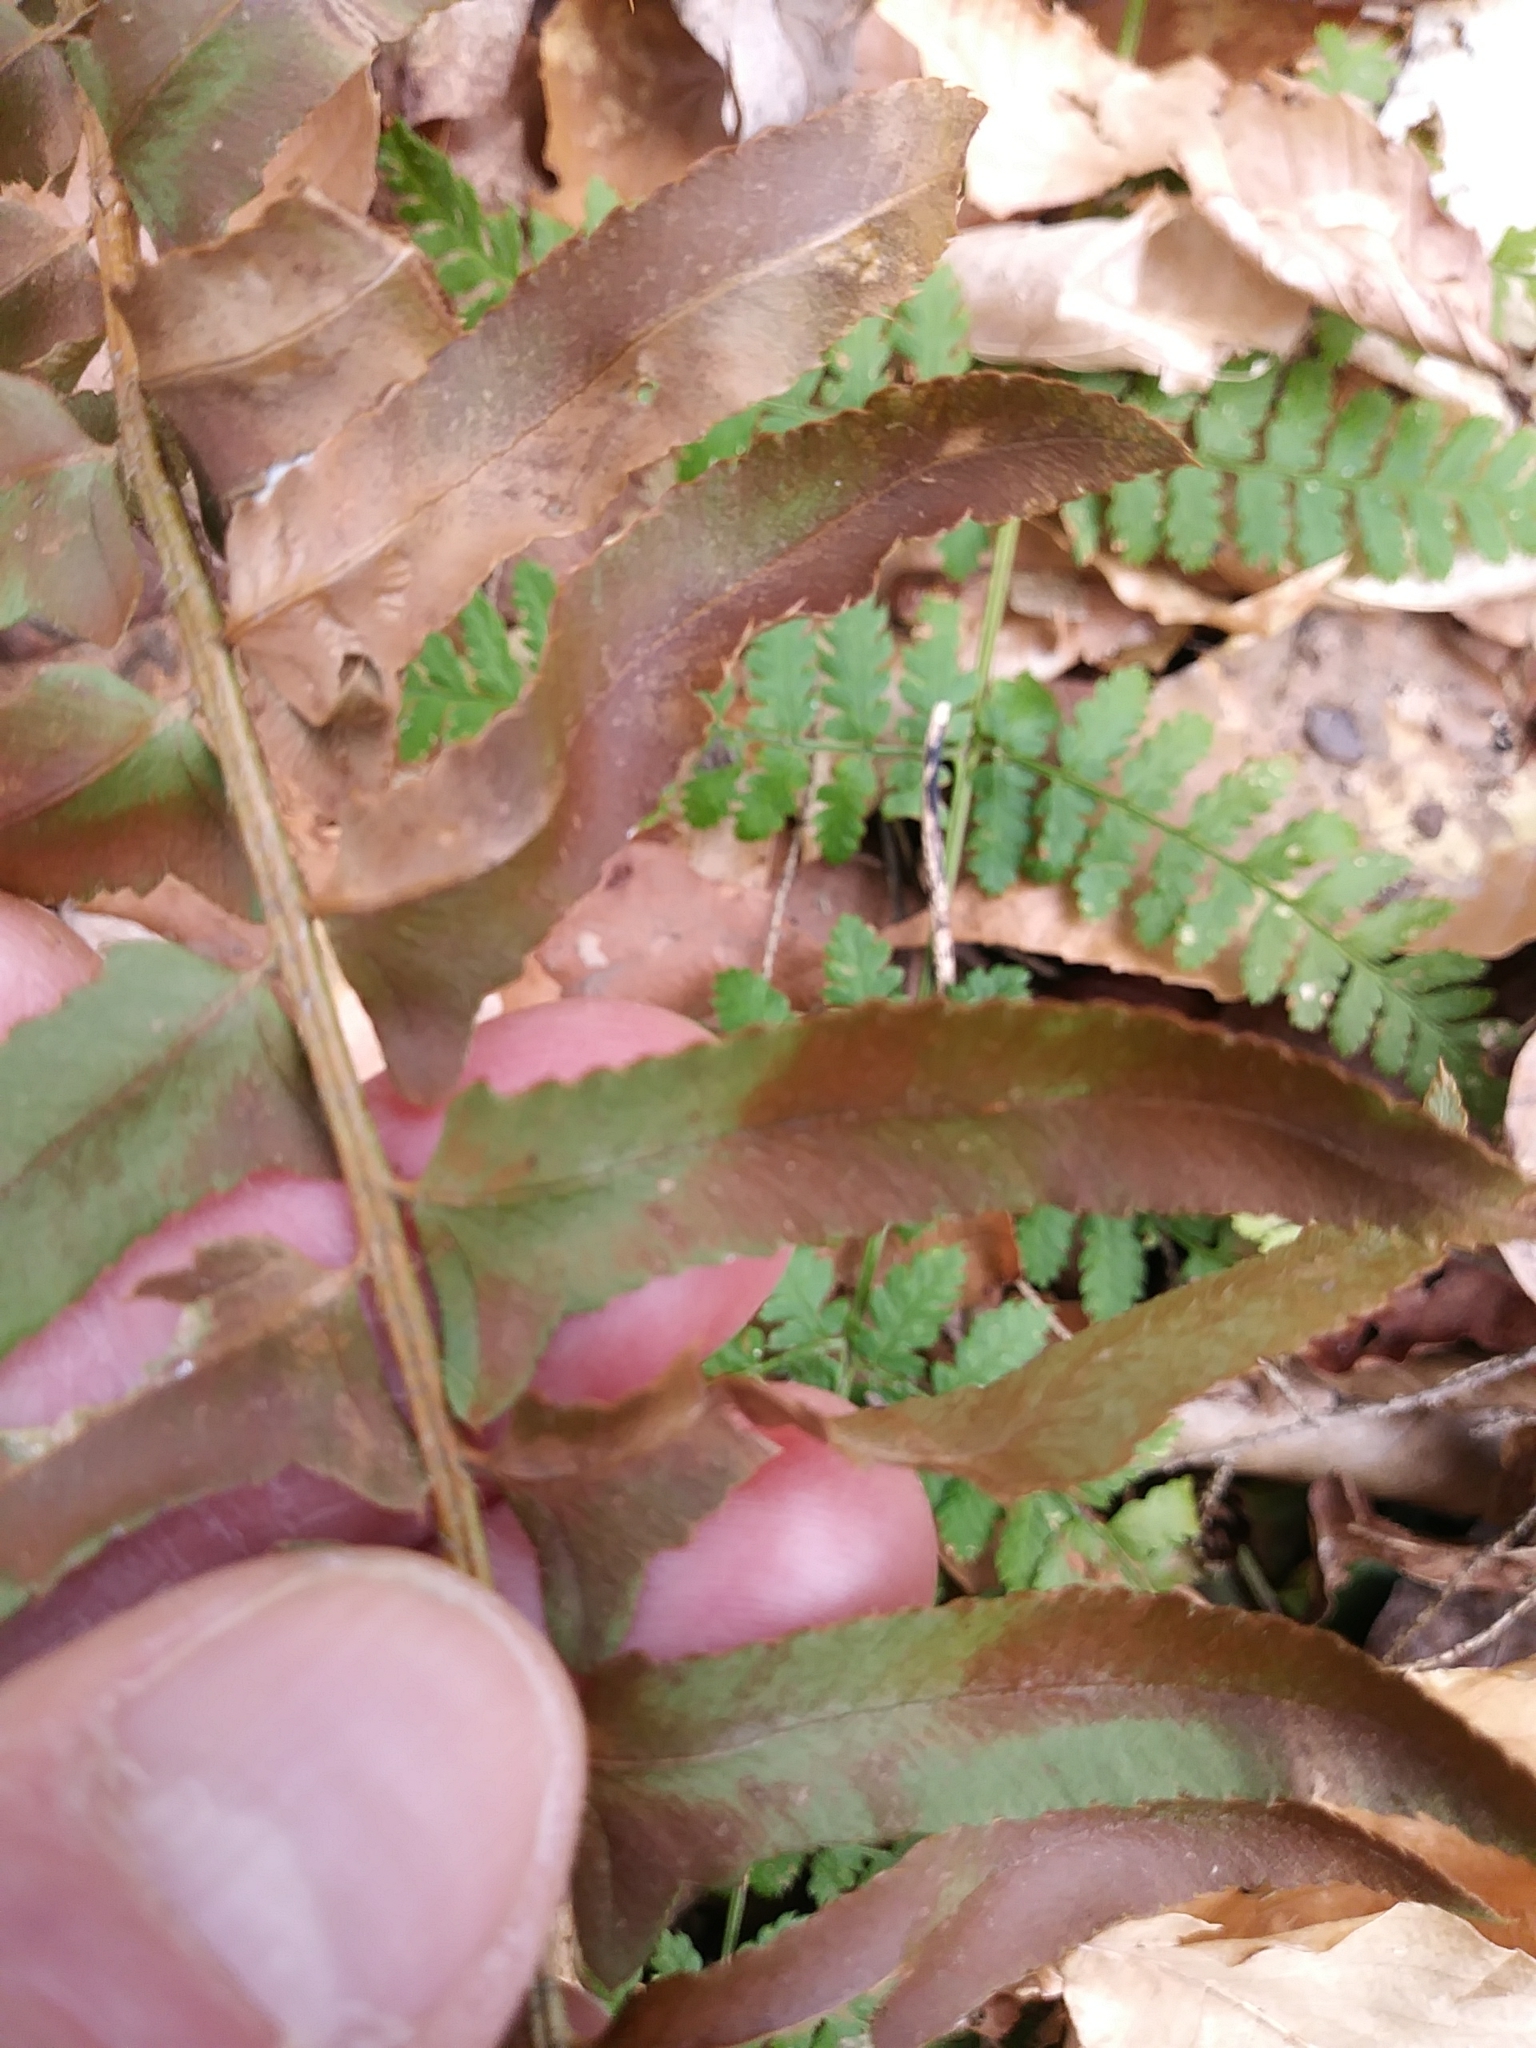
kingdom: Plantae
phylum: Tracheophyta
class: Polypodiopsida
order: Polypodiales
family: Dryopteridaceae
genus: Polystichum
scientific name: Polystichum acrostichoides
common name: Christmas fern
